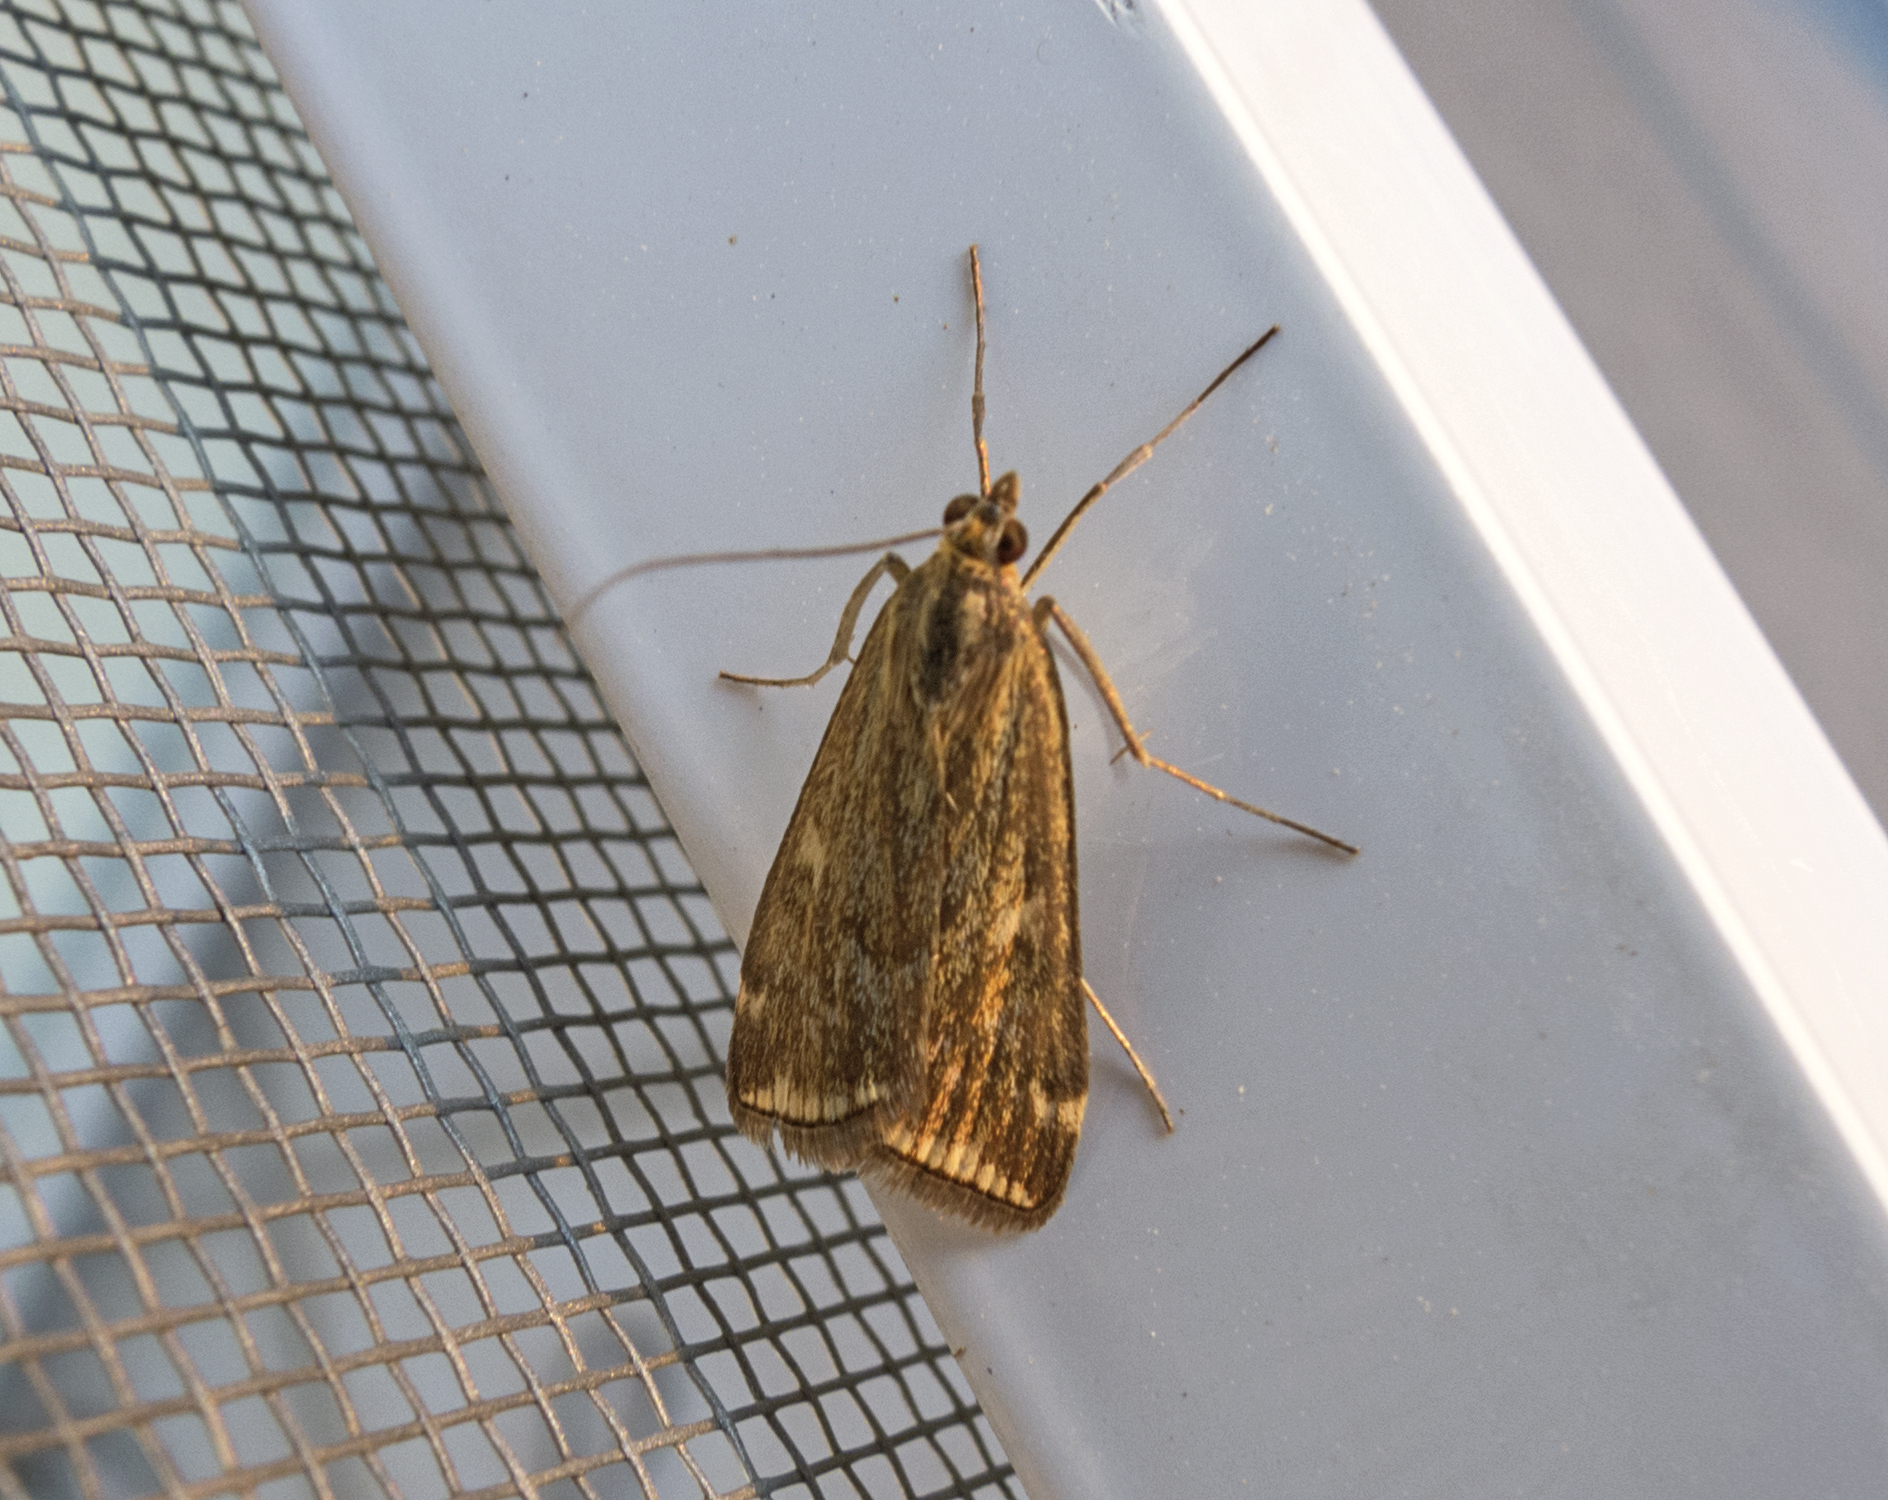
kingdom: Animalia
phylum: Arthropoda
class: Insecta
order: Lepidoptera
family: Crambidae
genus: Loxostege
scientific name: Loxostege sticticalis
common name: Crambid moth
